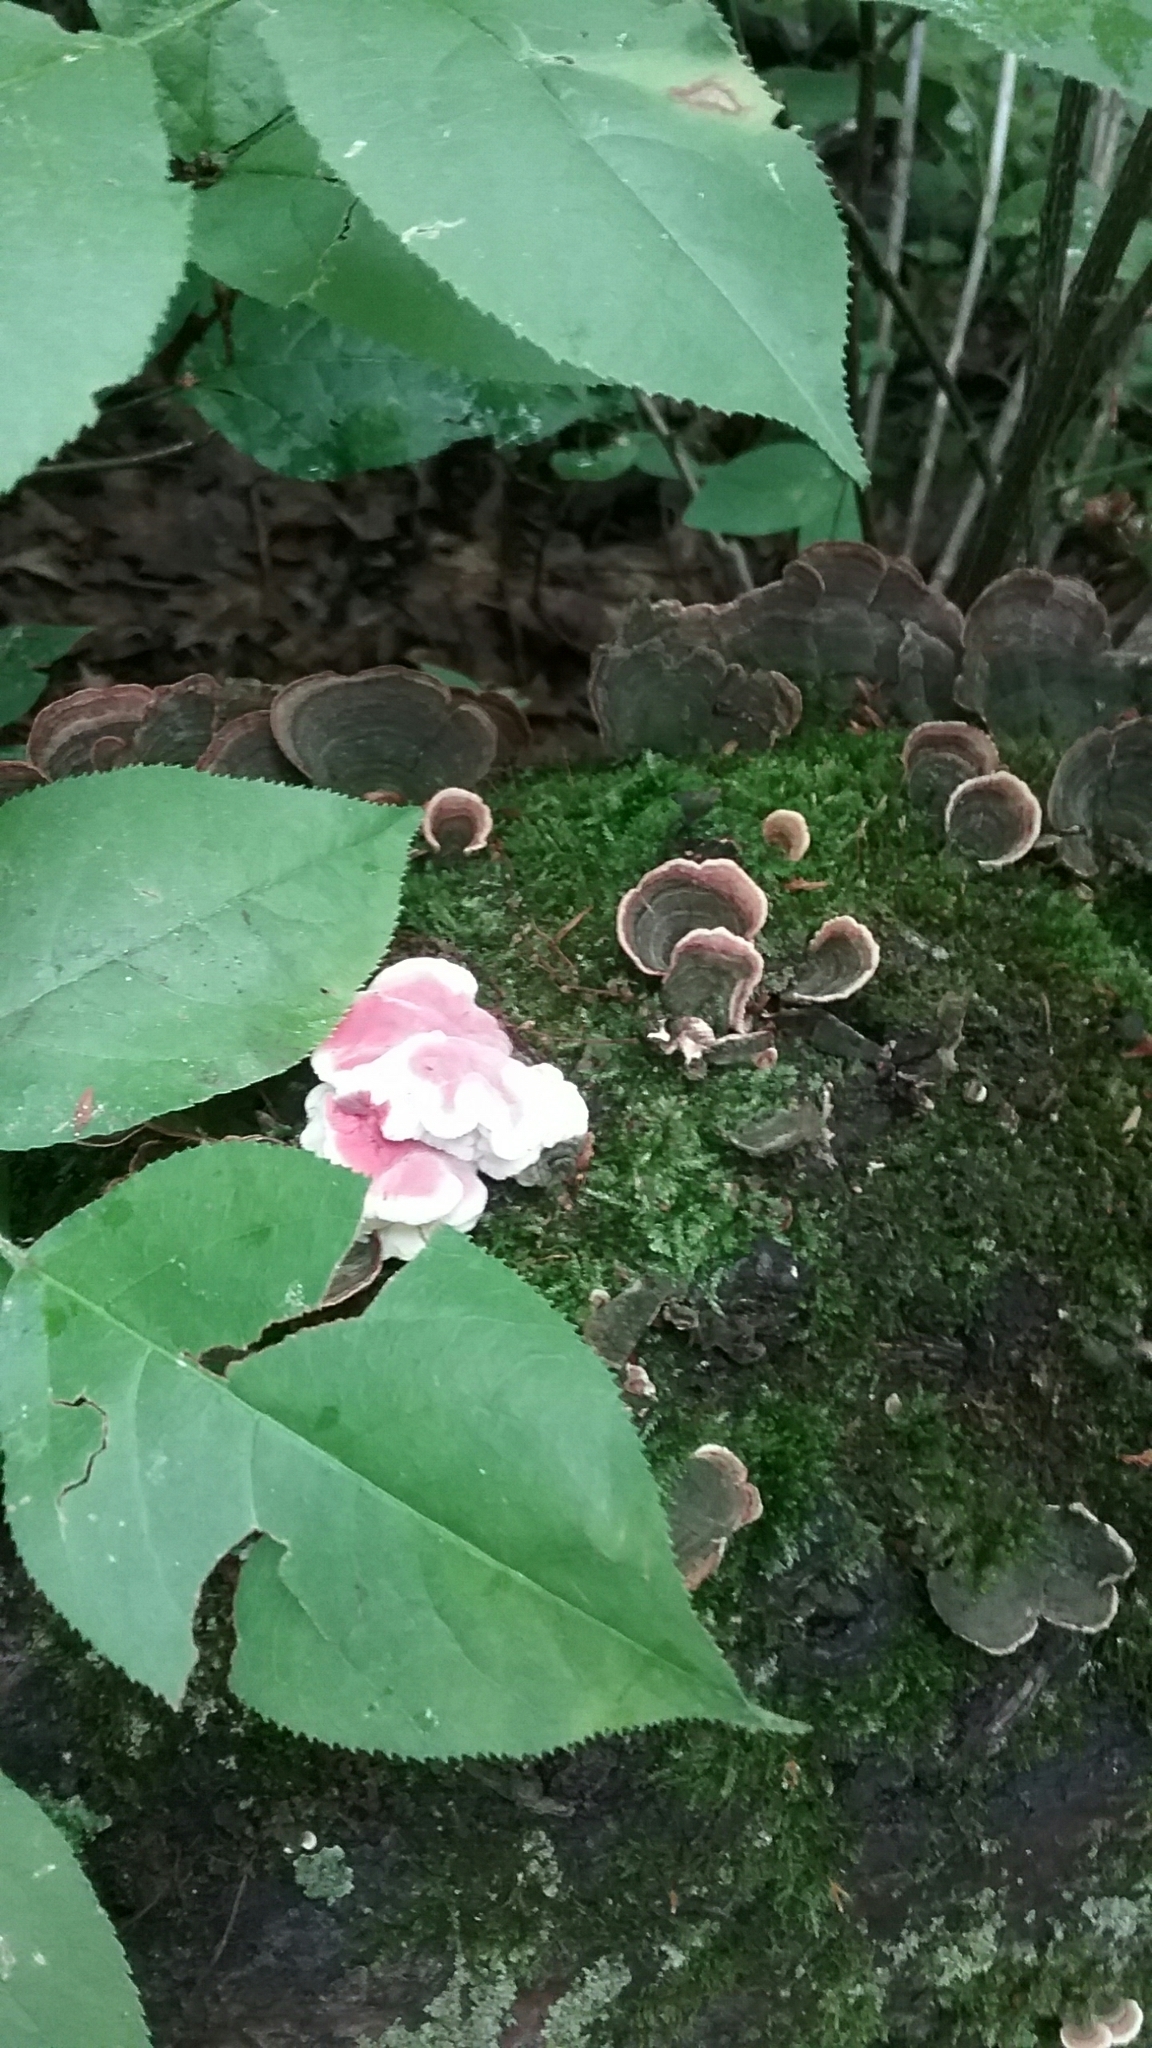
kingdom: Fungi
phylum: Basidiomycota
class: Agaricomycetes
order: Polyporales
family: Irpicaceae
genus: Byssomerulius
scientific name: Byssomerulius incarnatus
